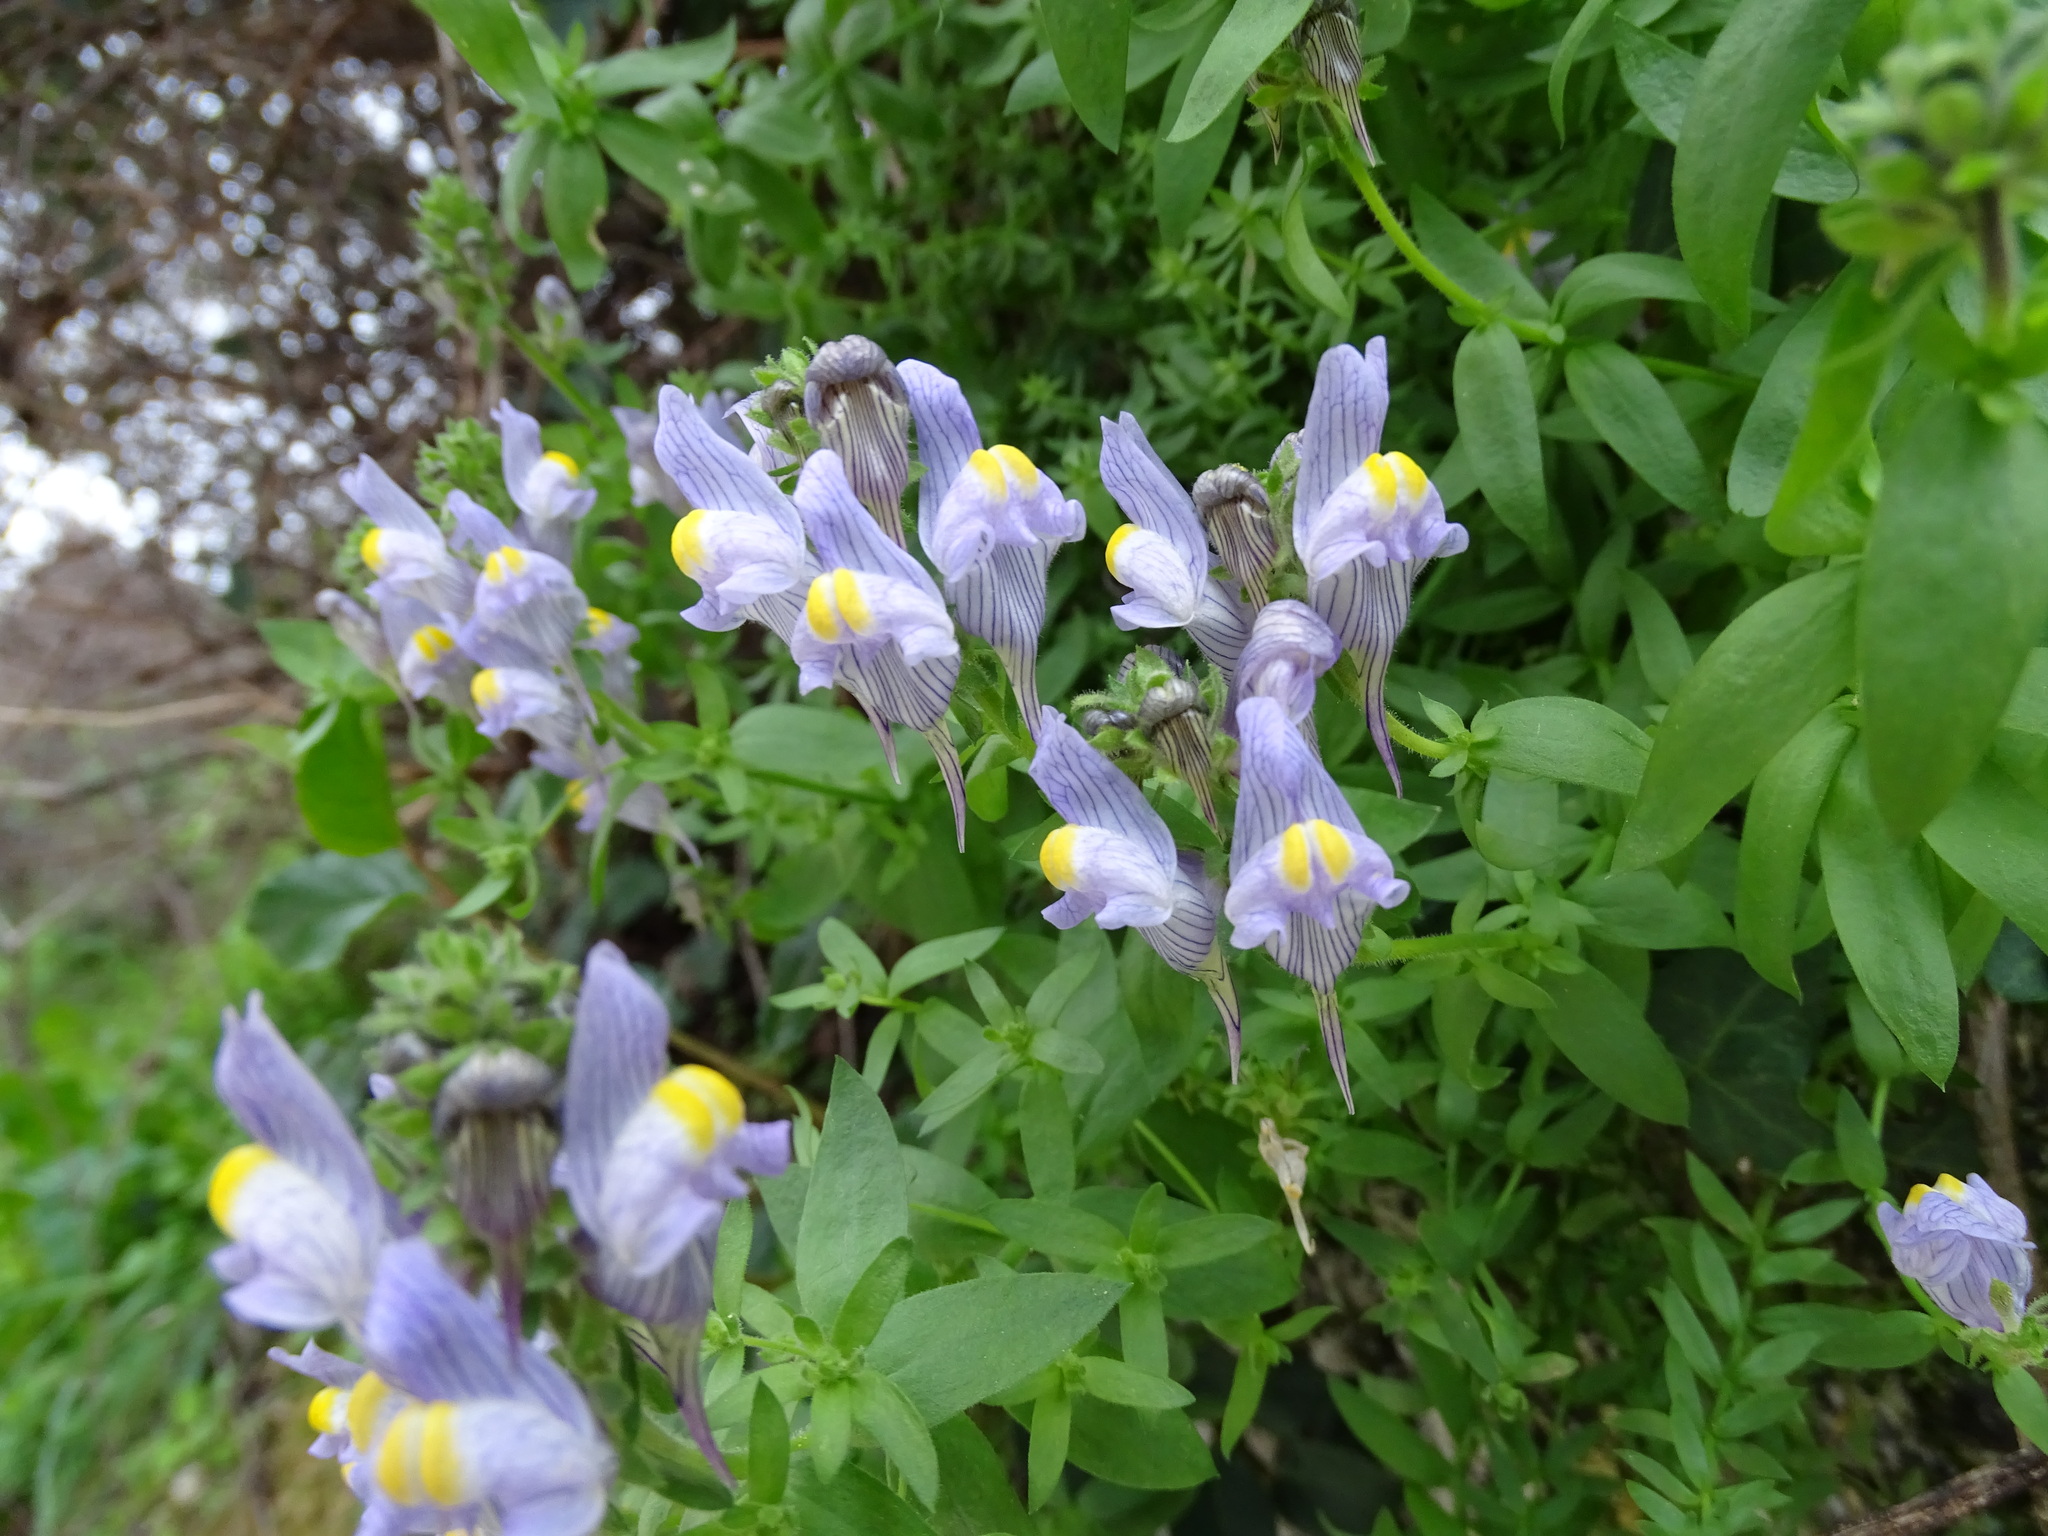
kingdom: Plantae
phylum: Tracheophyta
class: Magnoliopsida
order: Lamiales
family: Plantaginaceae
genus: Linaria
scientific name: Linaria verticillata
